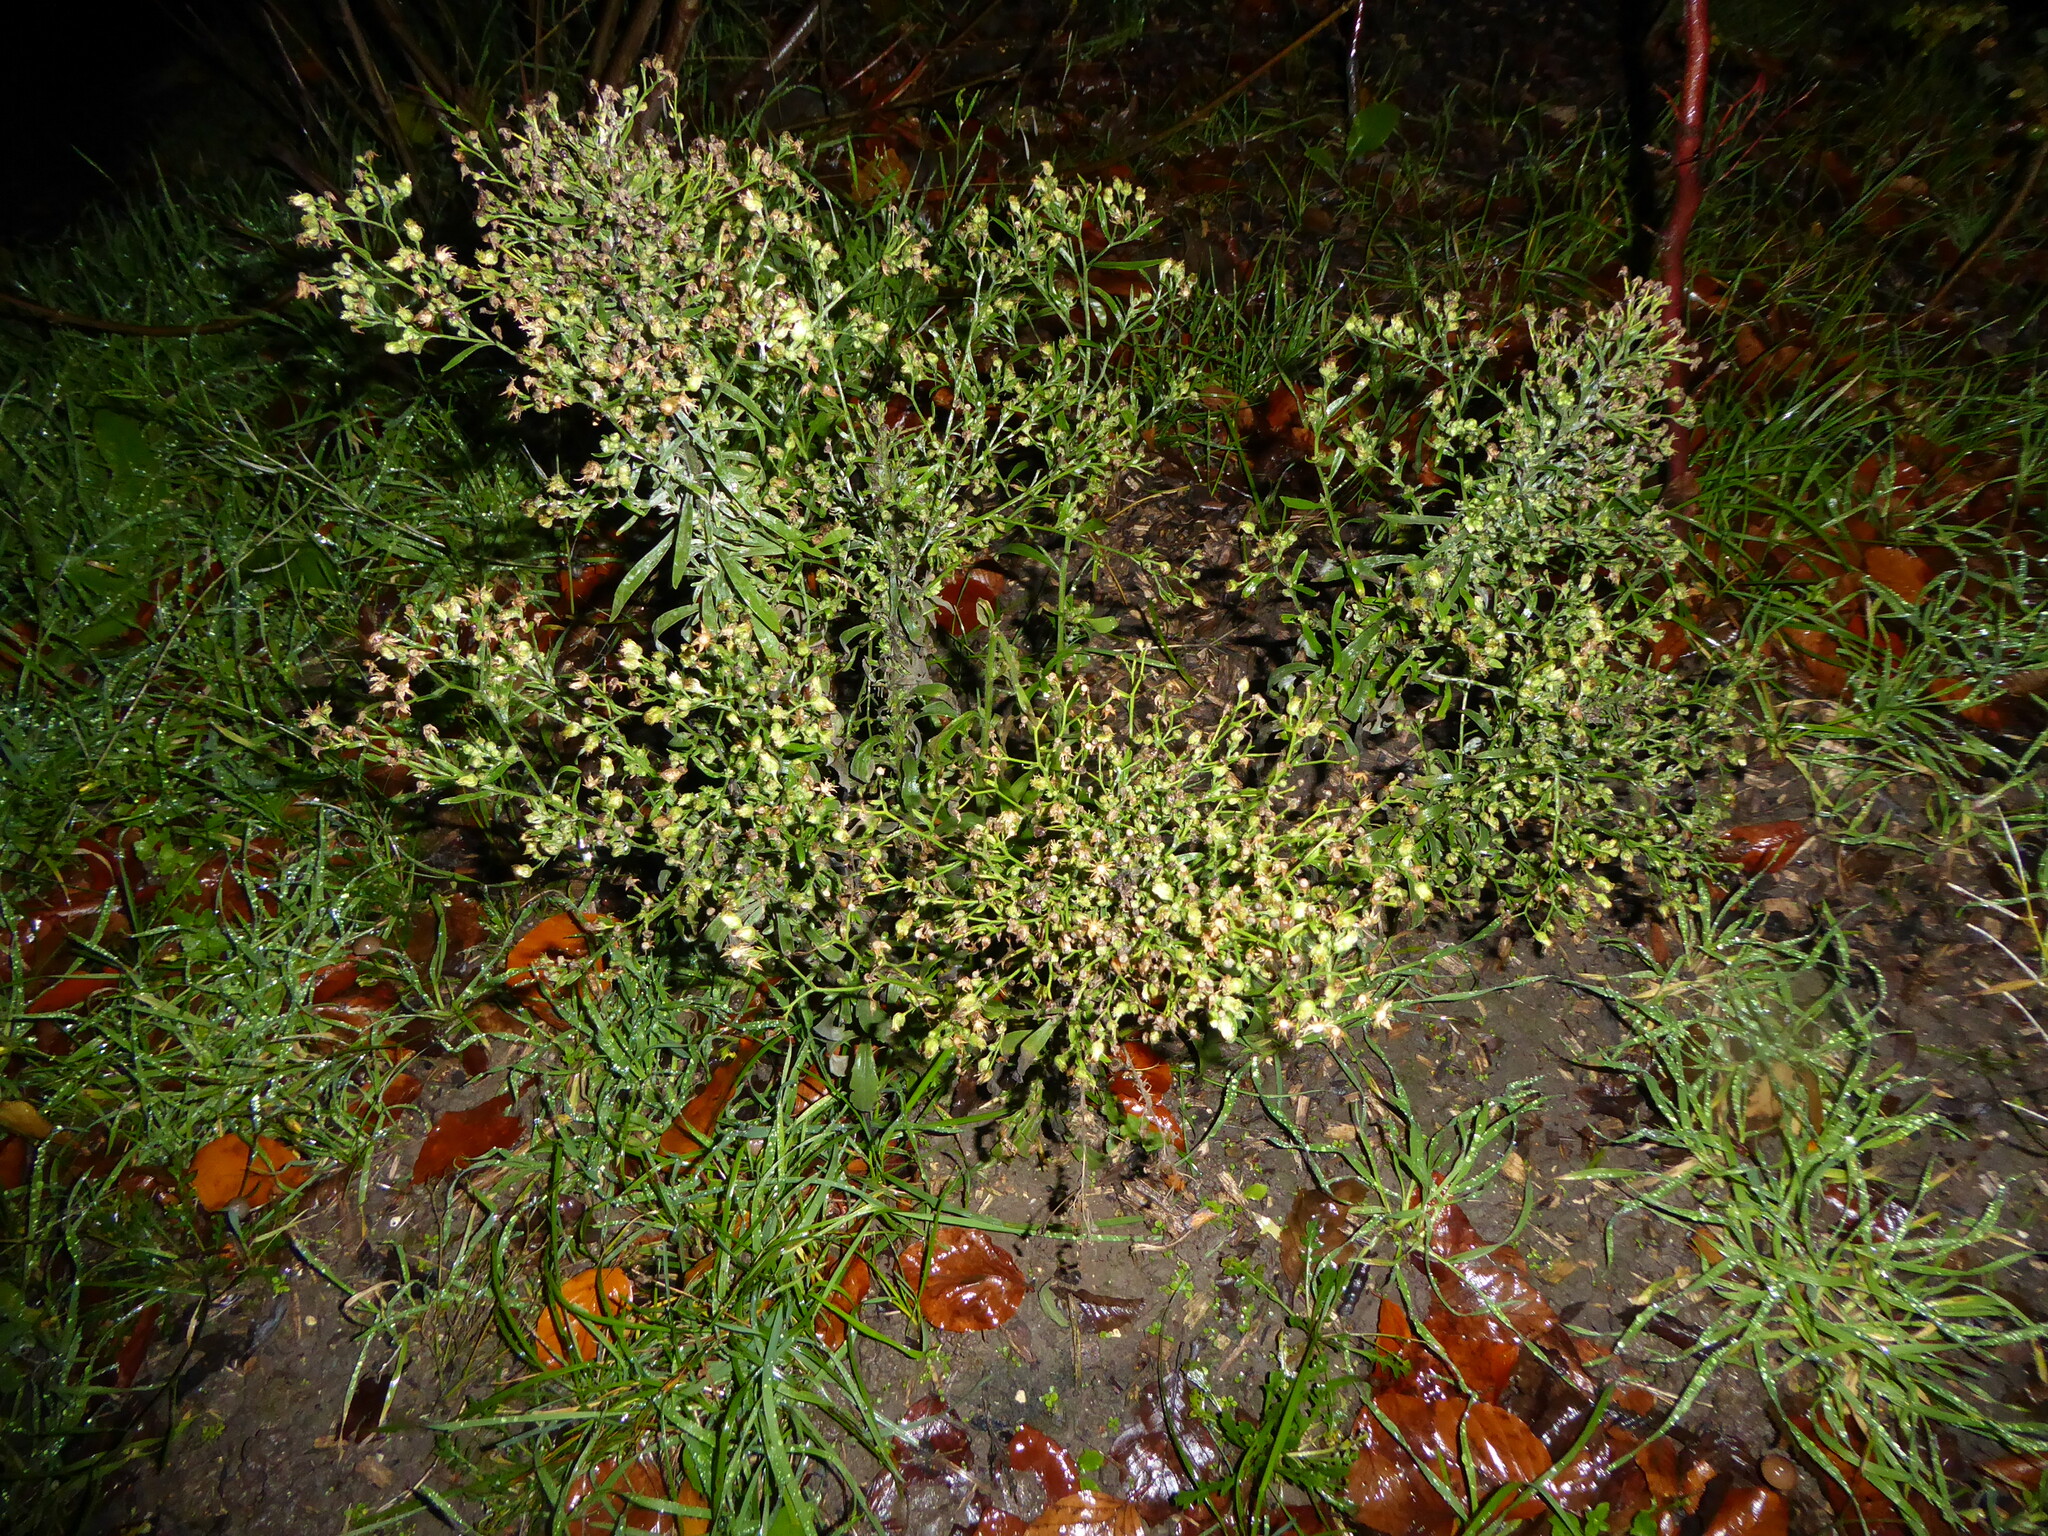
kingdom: Plantae
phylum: Tracheophyta
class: Magnoliopsida
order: Asterales
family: Asteraceae
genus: Erigeron
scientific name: Erigeron sumatrensis
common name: Daisy
